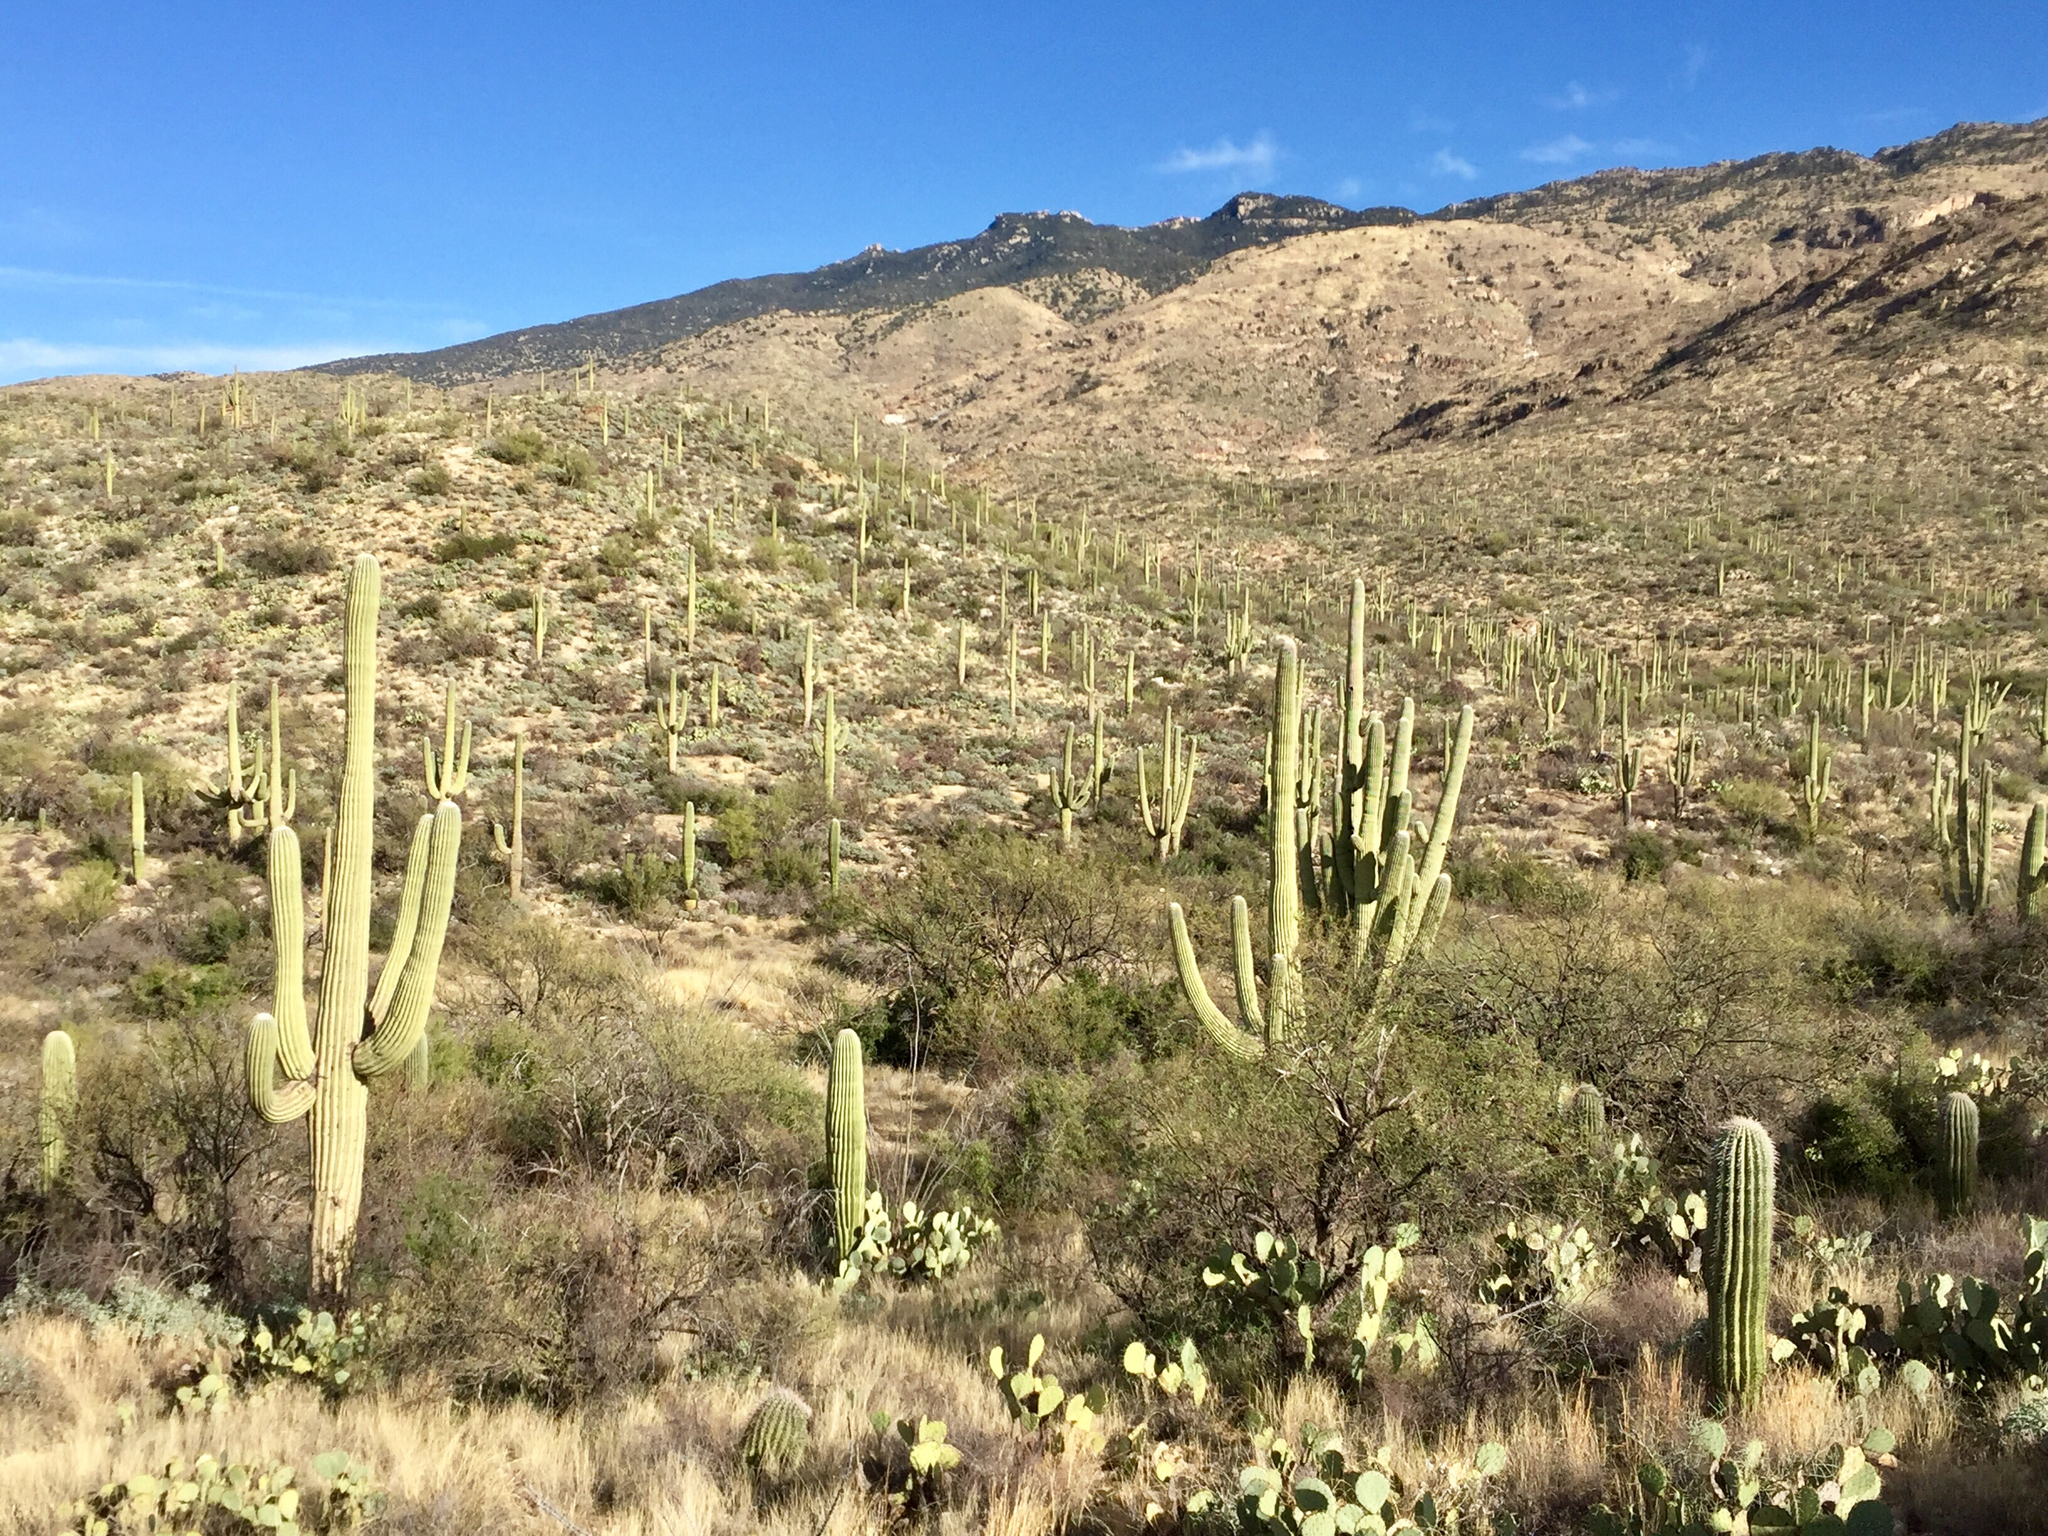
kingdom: Plantae
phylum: Tracheophyta
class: Magnoliopsida
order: Caryophyllales
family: Cactaceae
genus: Carnegiea
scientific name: Carnegiea gigantea
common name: Saguaro
